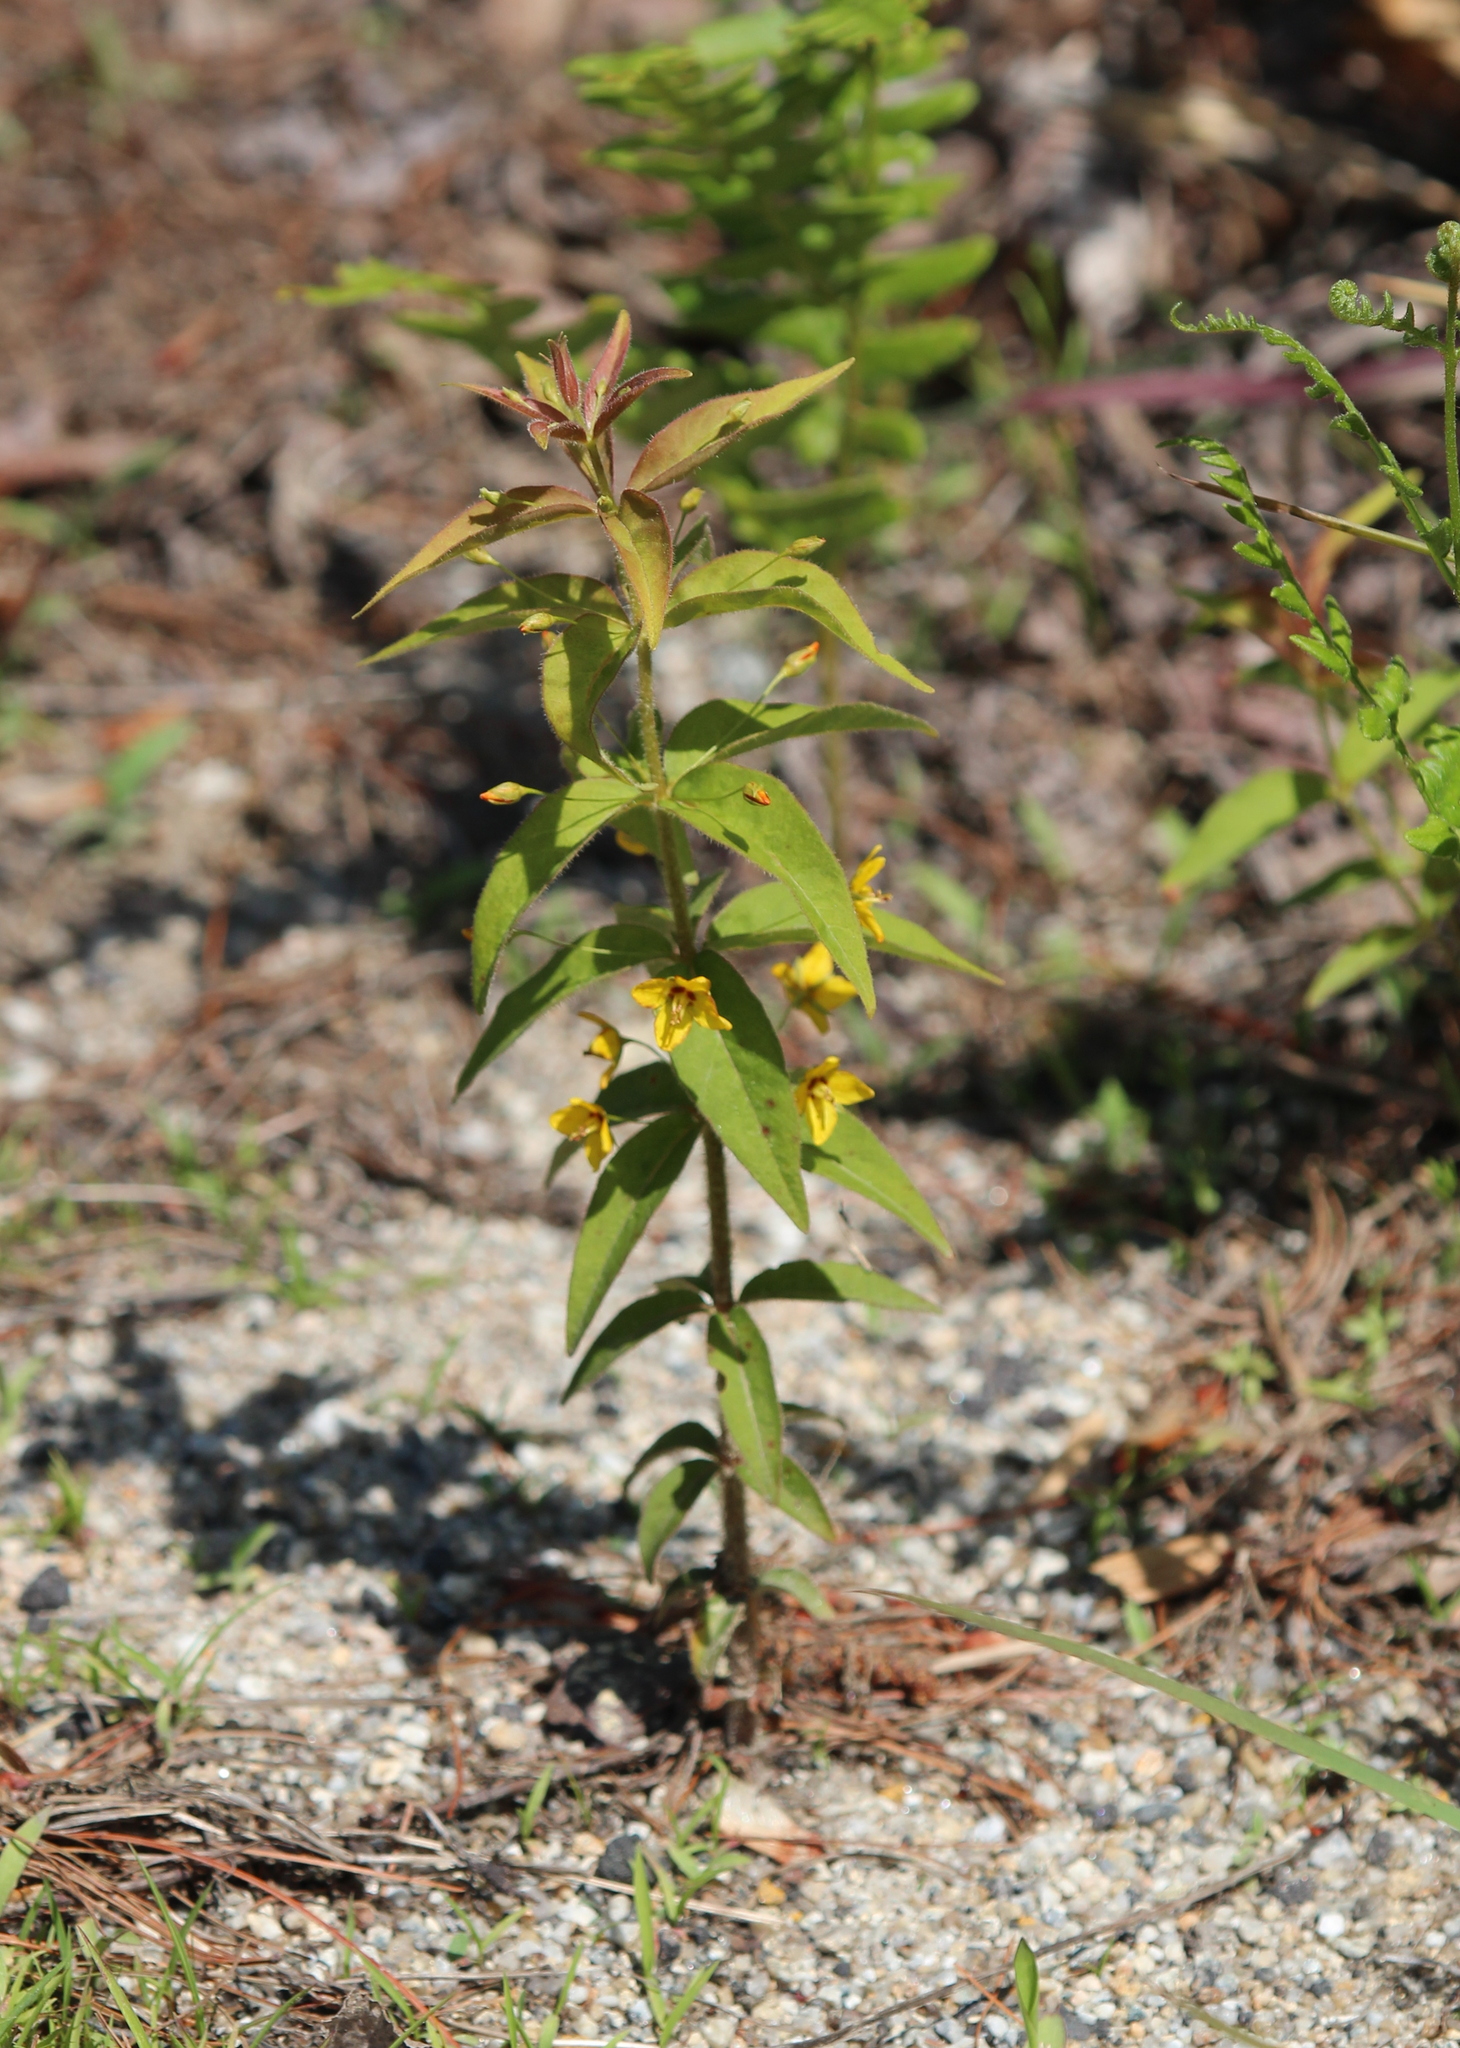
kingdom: Plantae
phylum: Tracheophyta
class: Magnoliopsida
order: Ericales
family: Primulaceae
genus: Lysimachia
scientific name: Lysimachia quadrifolia
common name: Whorled loosestrife
